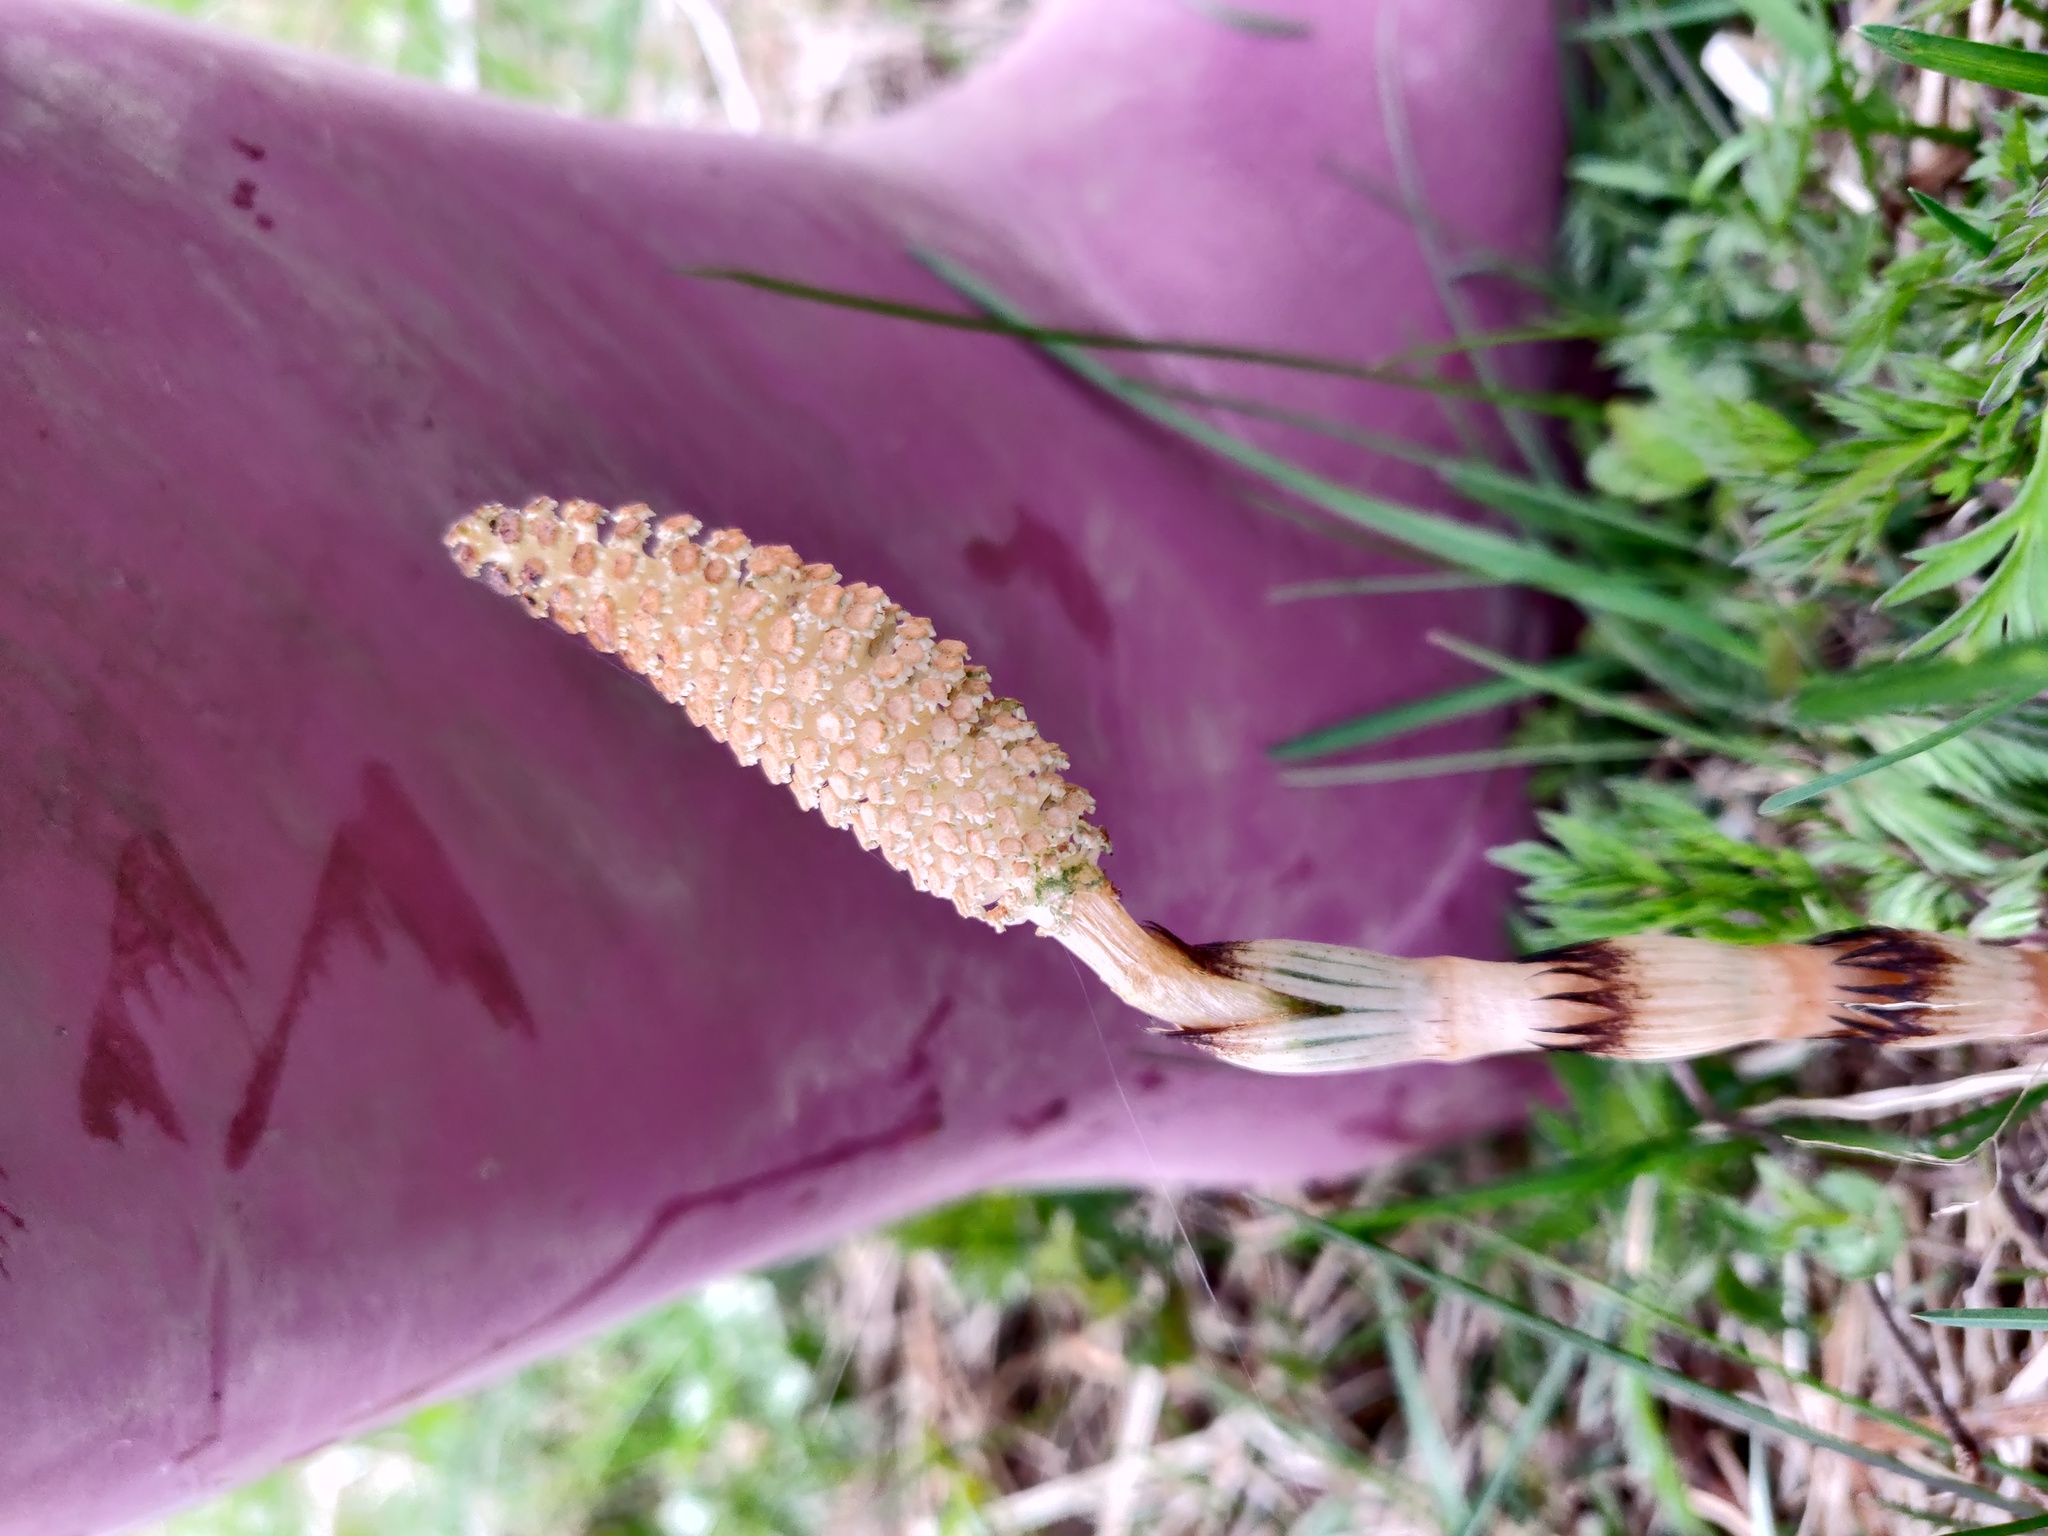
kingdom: Plantae
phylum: Tracheophyta
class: Polypodiopsida
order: Equisetales
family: Equisetaceae
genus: Equisetum
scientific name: Equisetum arvense
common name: Field horsetail
